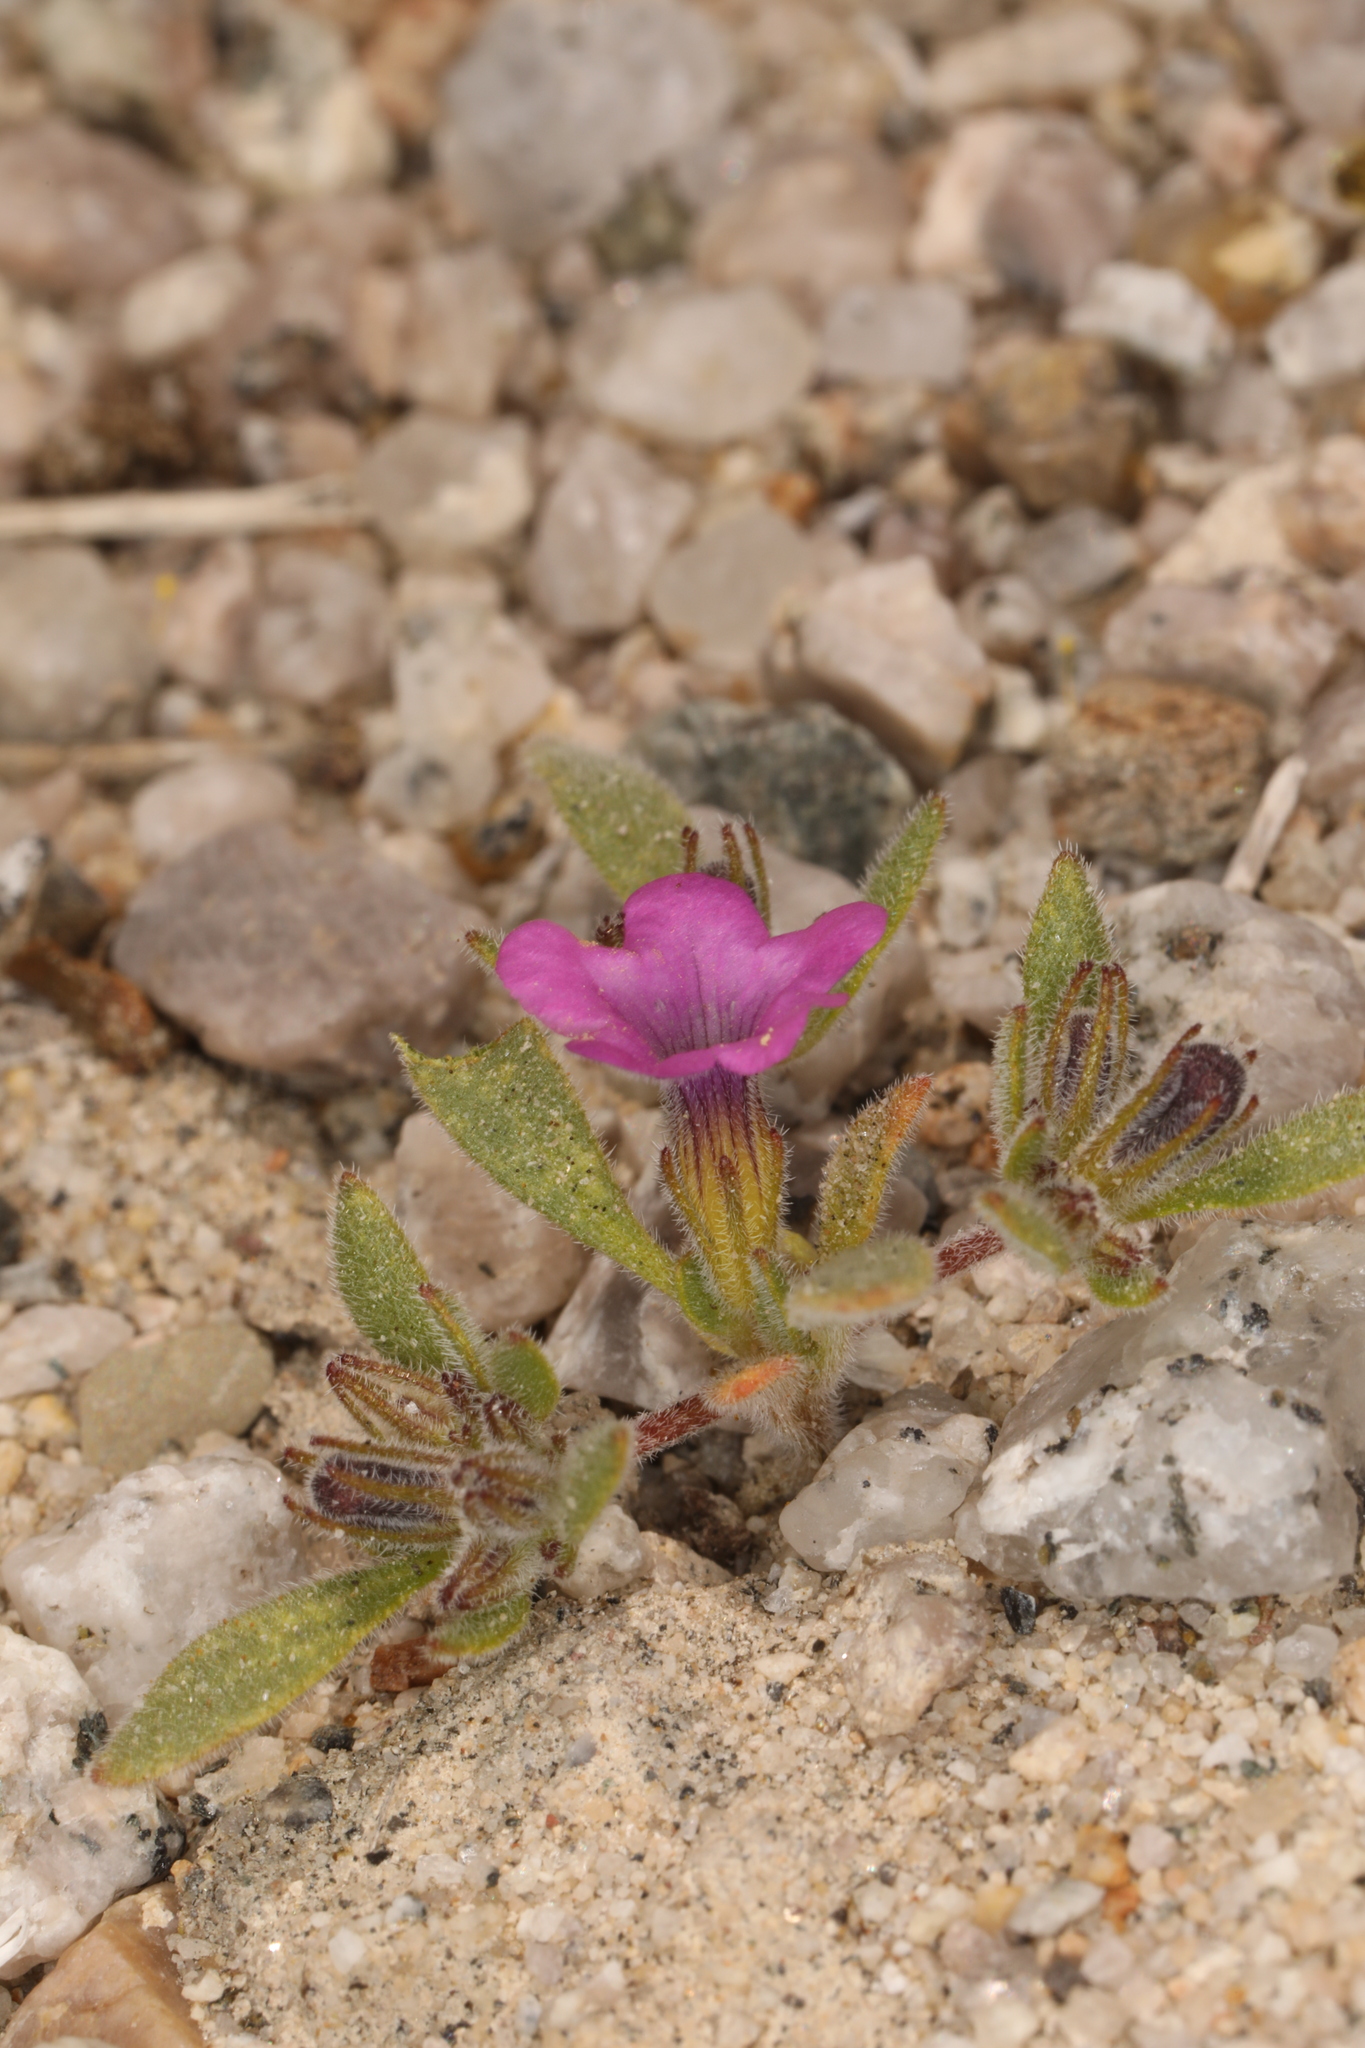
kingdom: Plantae
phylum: Tracheophyta
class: Magnoliopsida
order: Boraginales
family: Namaceae
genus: Nama
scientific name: Nama demissa
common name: Leafy nama
